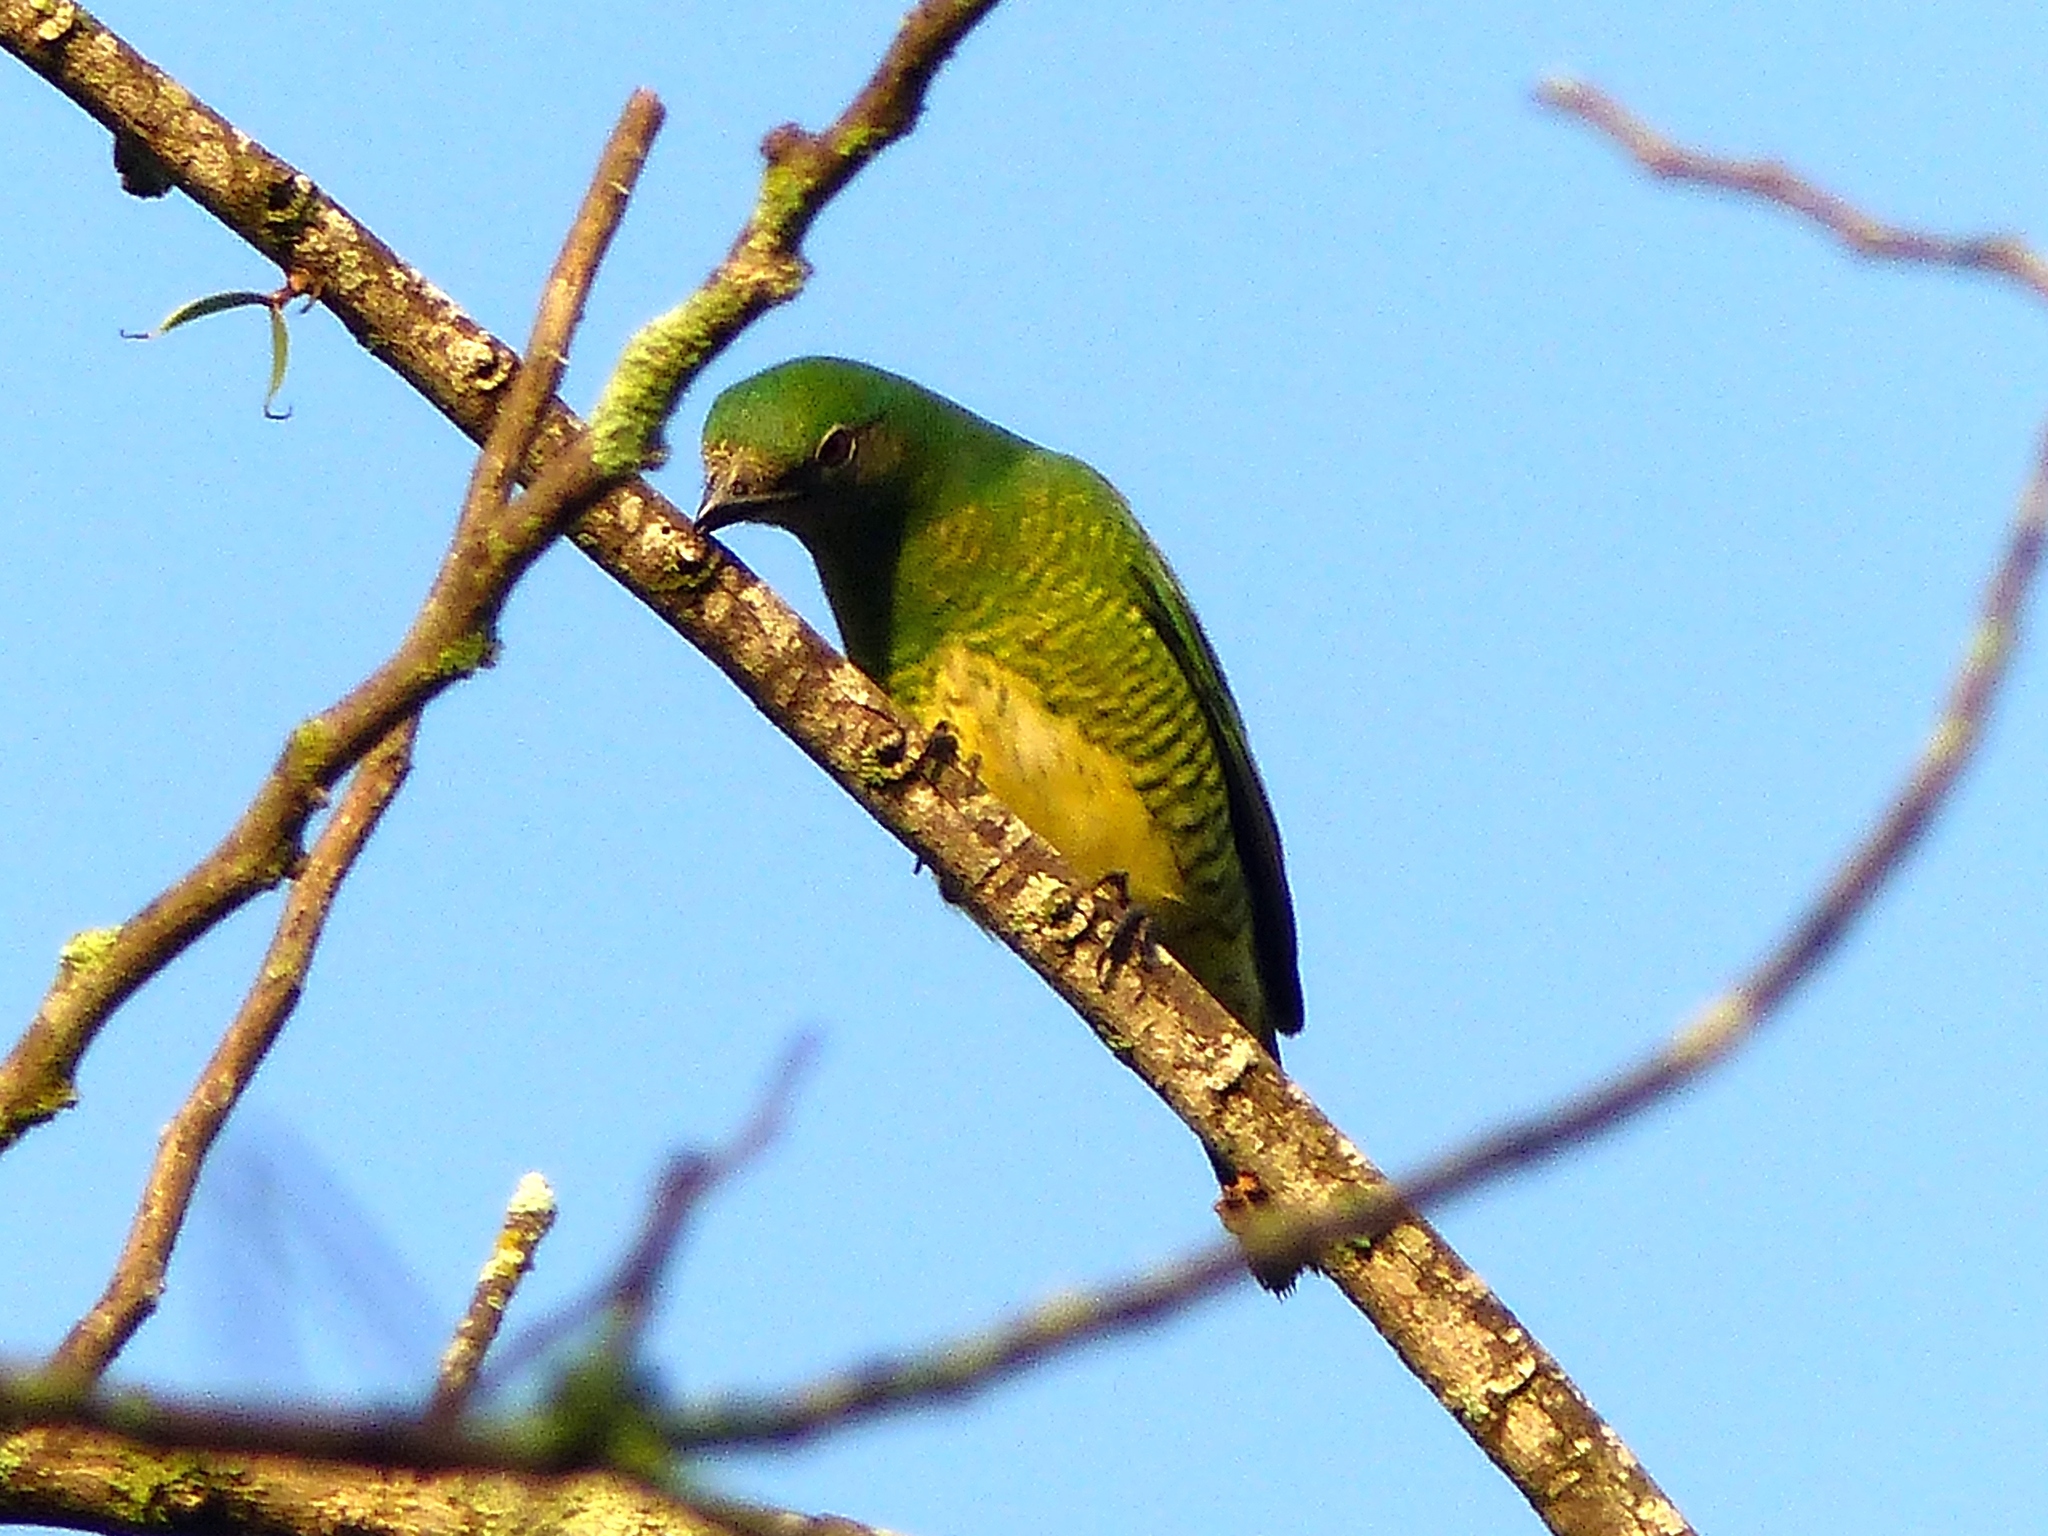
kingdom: Animalia
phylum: Chordata
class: Aves
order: Passeriformes
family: Thraupidae
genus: Tersina
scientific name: Tersina viridis
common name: Swallow tanager
